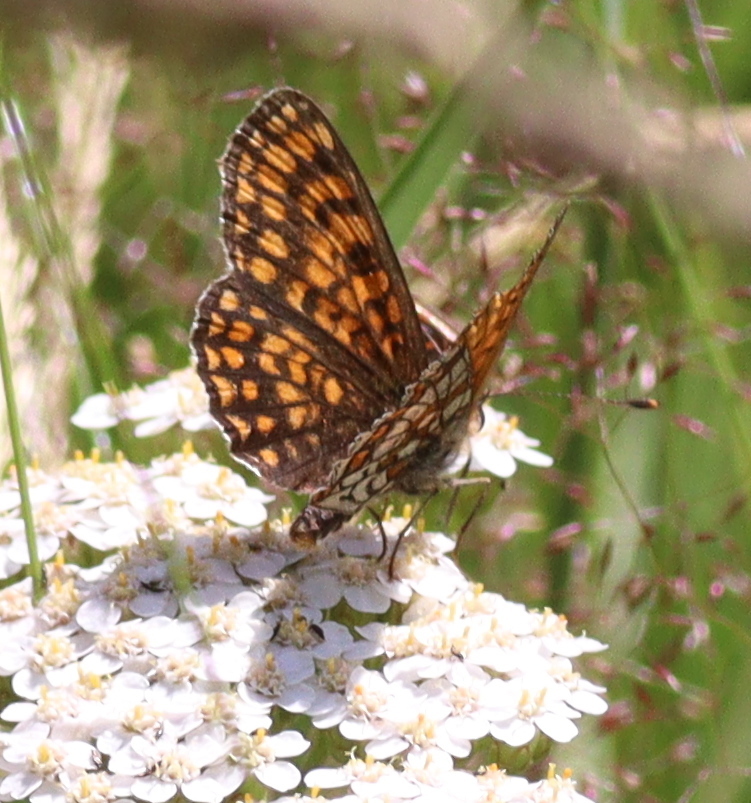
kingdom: Animalia
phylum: Arthropoda
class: Insecta
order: Lepidoptera
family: Nymphalidae
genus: Melitaea
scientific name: Melitaea athalia
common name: Heath fritillary
